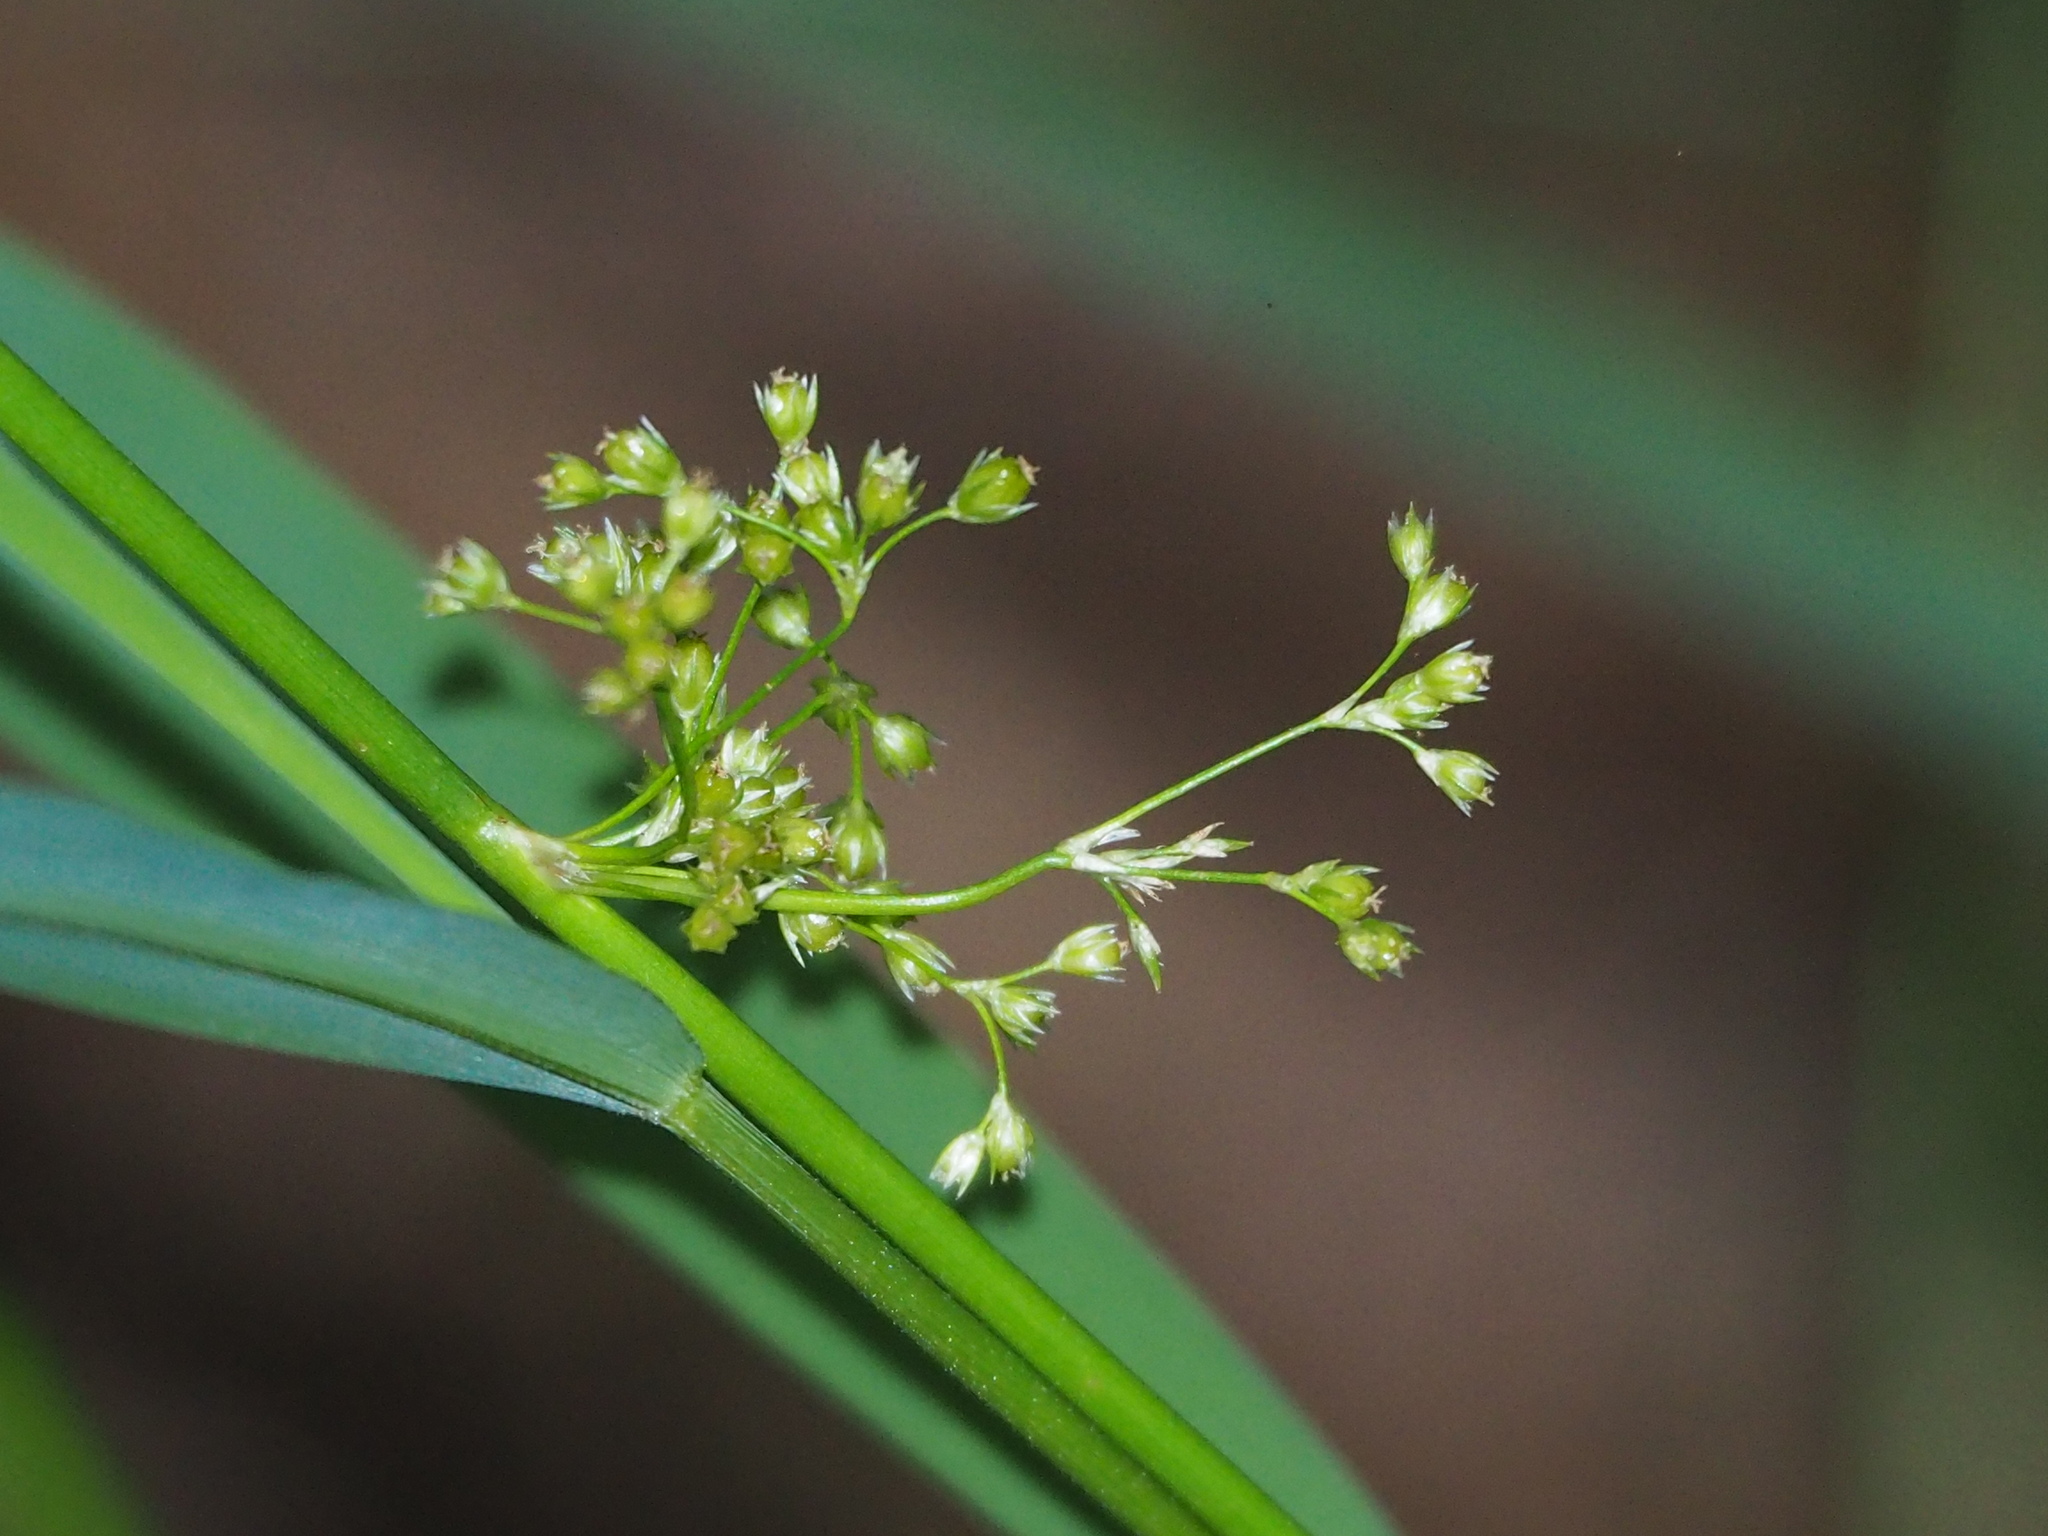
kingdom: Plantae
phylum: Tracheophyta
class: Liliopsida
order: Poales
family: Juncaceae
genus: Juncus
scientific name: Juncus decipiens
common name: Lamp rush
